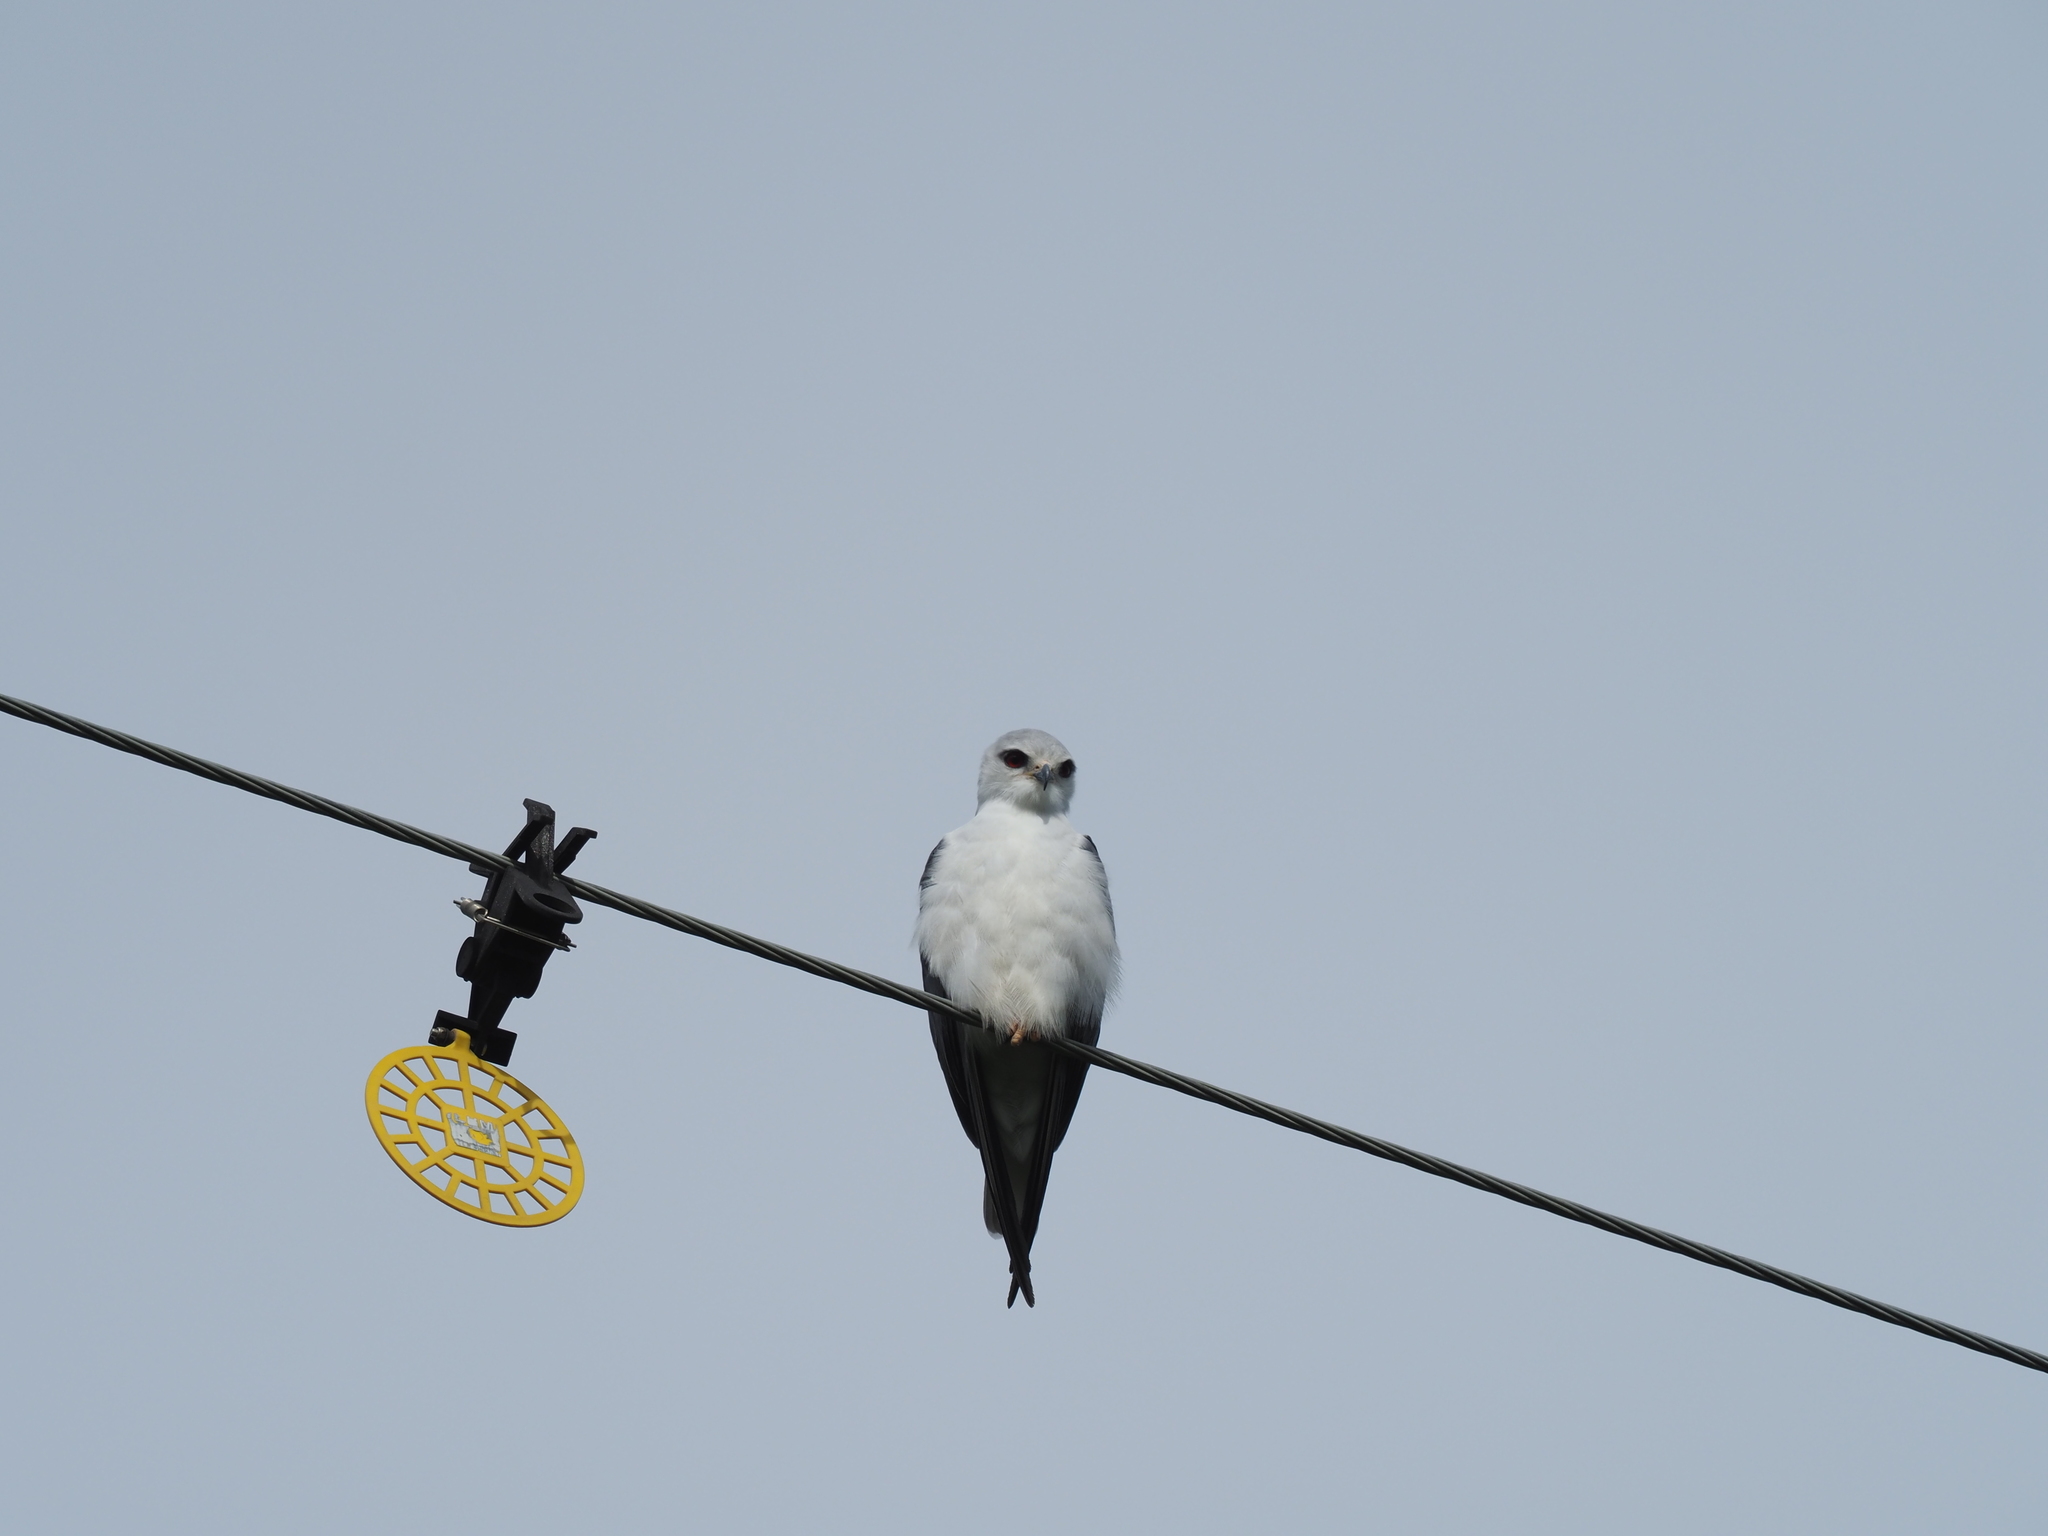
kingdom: Animalia
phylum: Chordata
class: Aves
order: Accipitriformes
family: Accipitridae
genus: Elanus
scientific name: Elanus caeruleus
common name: Black-winged kite
